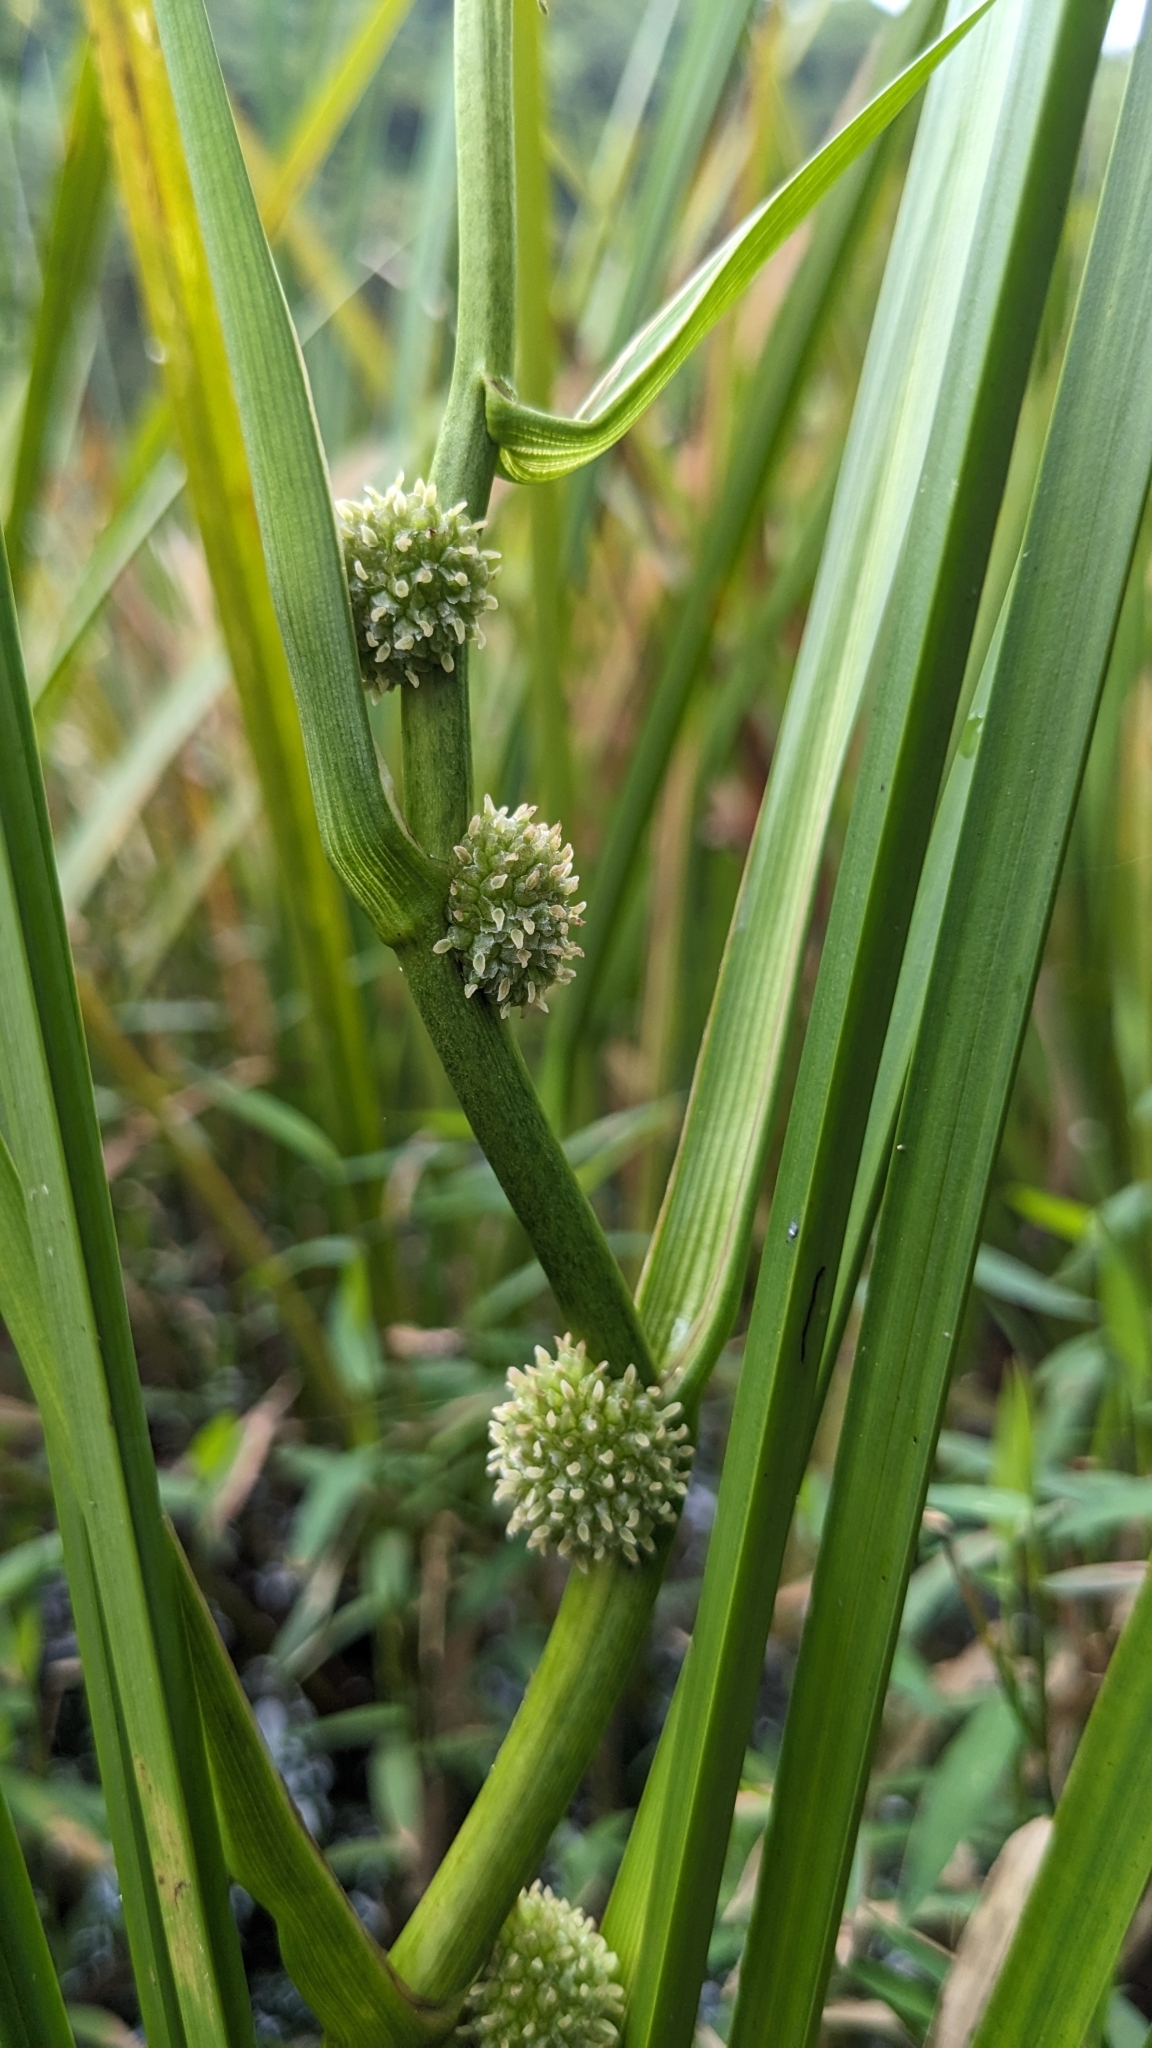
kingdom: Plantae
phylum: Tracheophyta
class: Liliopsida
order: Poales
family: Typhaceae
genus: Sparganium
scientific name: Sparganium fallax
